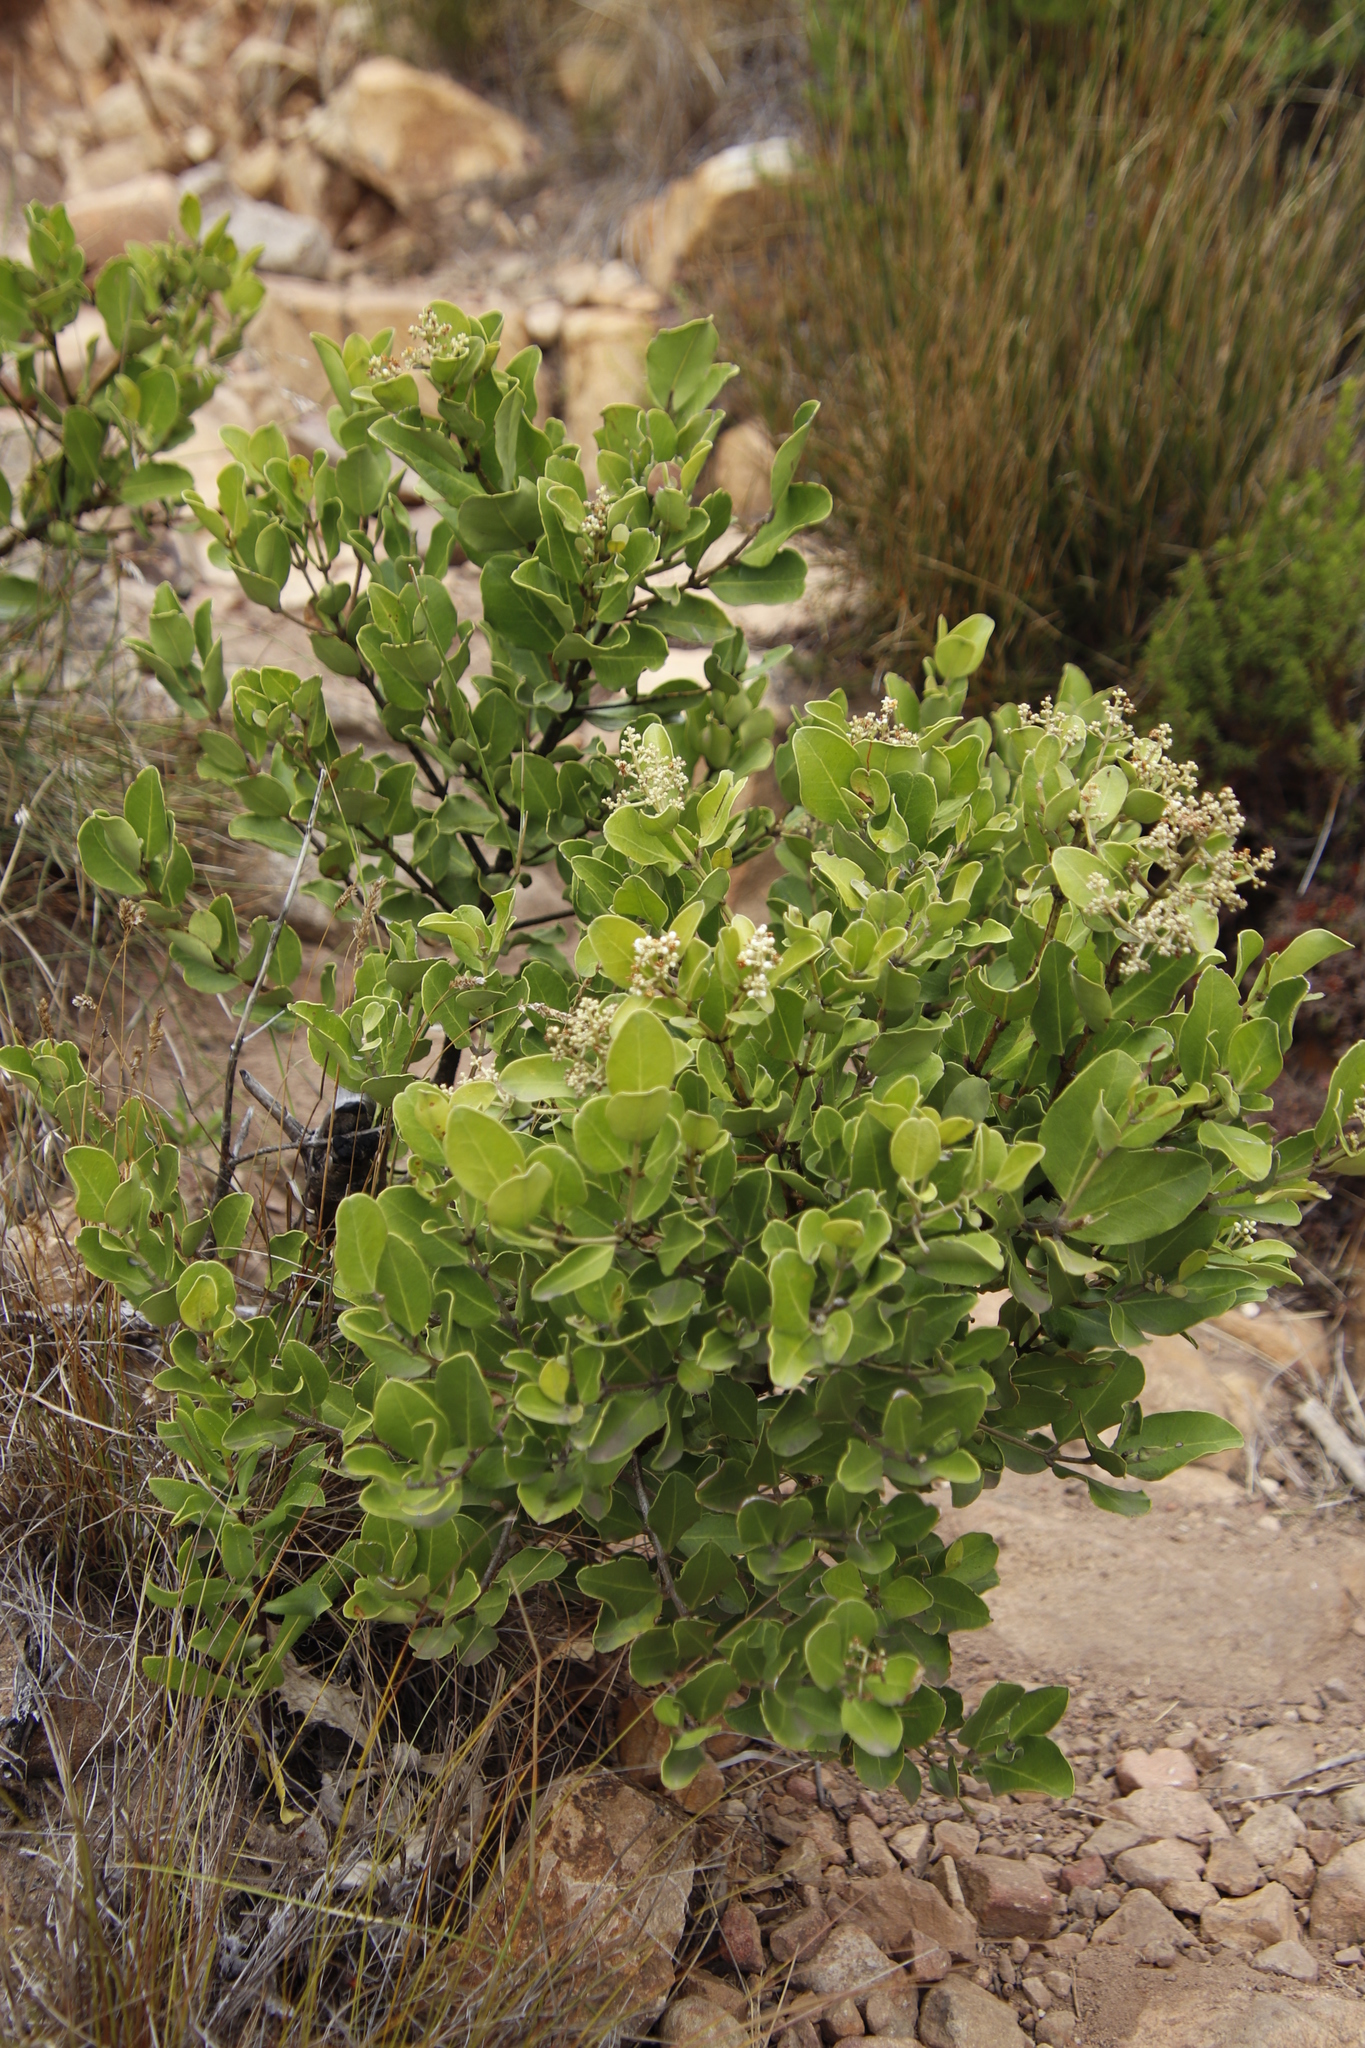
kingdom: Plantae
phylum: Tracheophyta
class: Magnoliopsida
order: Lamiales
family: Oleaceae
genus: Olea
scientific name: Olea capensis
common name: Black ironwood
